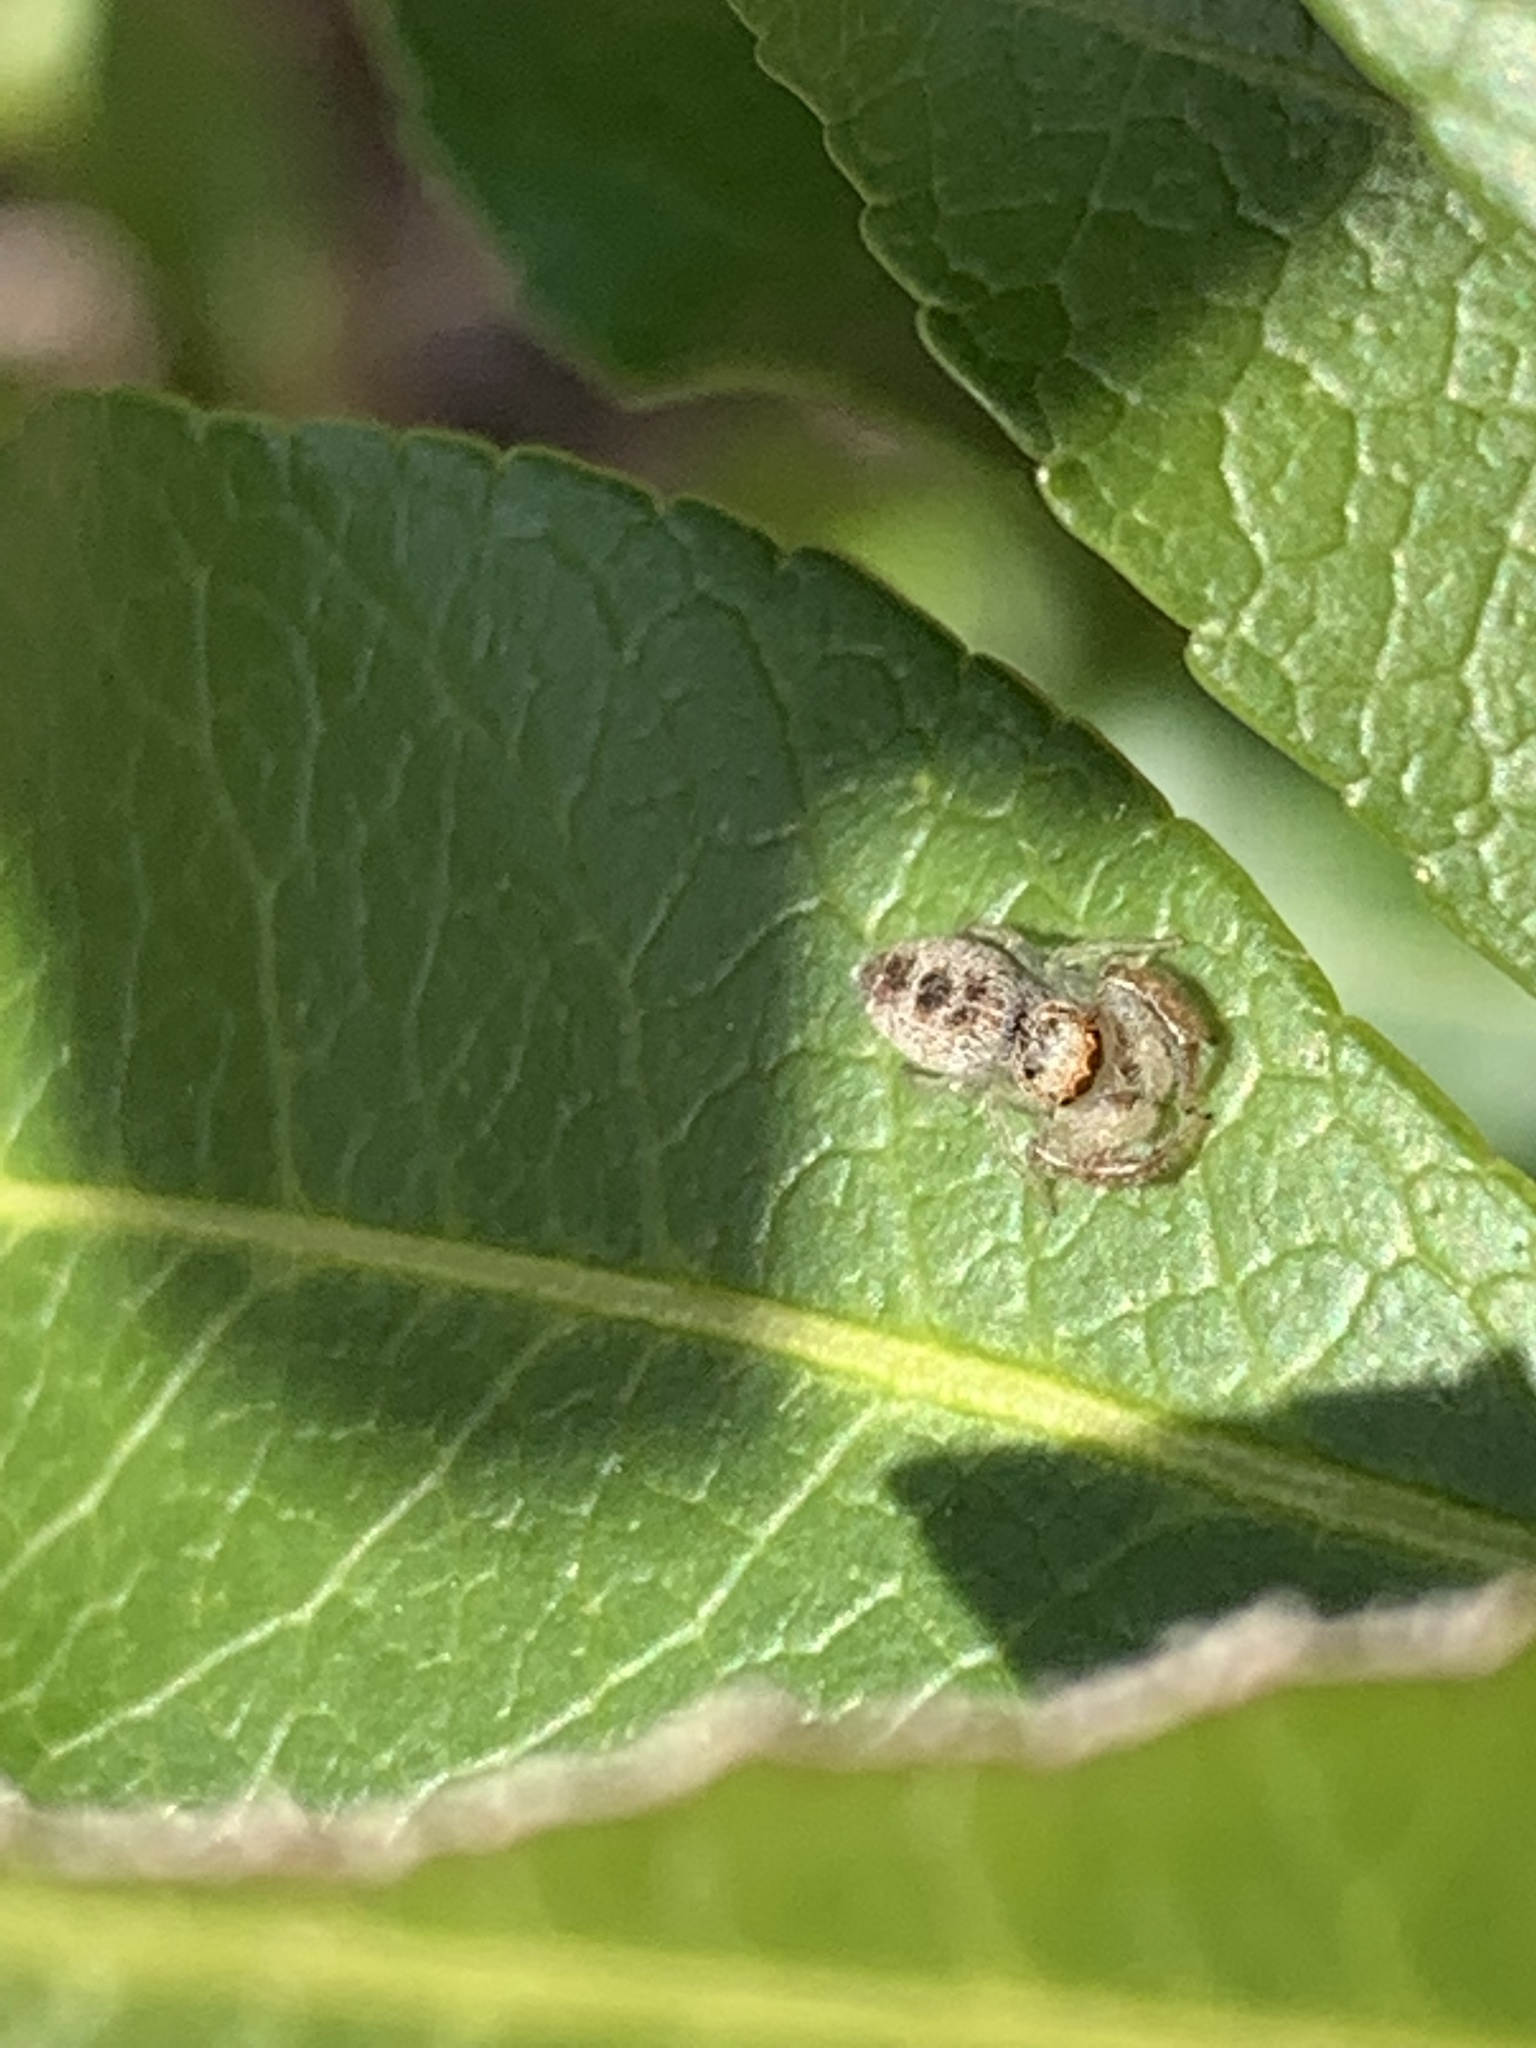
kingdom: Animalia
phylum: Arthropoda
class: Arachnida
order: Araneae
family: Salticidae
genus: Hentzia
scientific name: Hentzia mitrata
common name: White-jawed jumping spider
